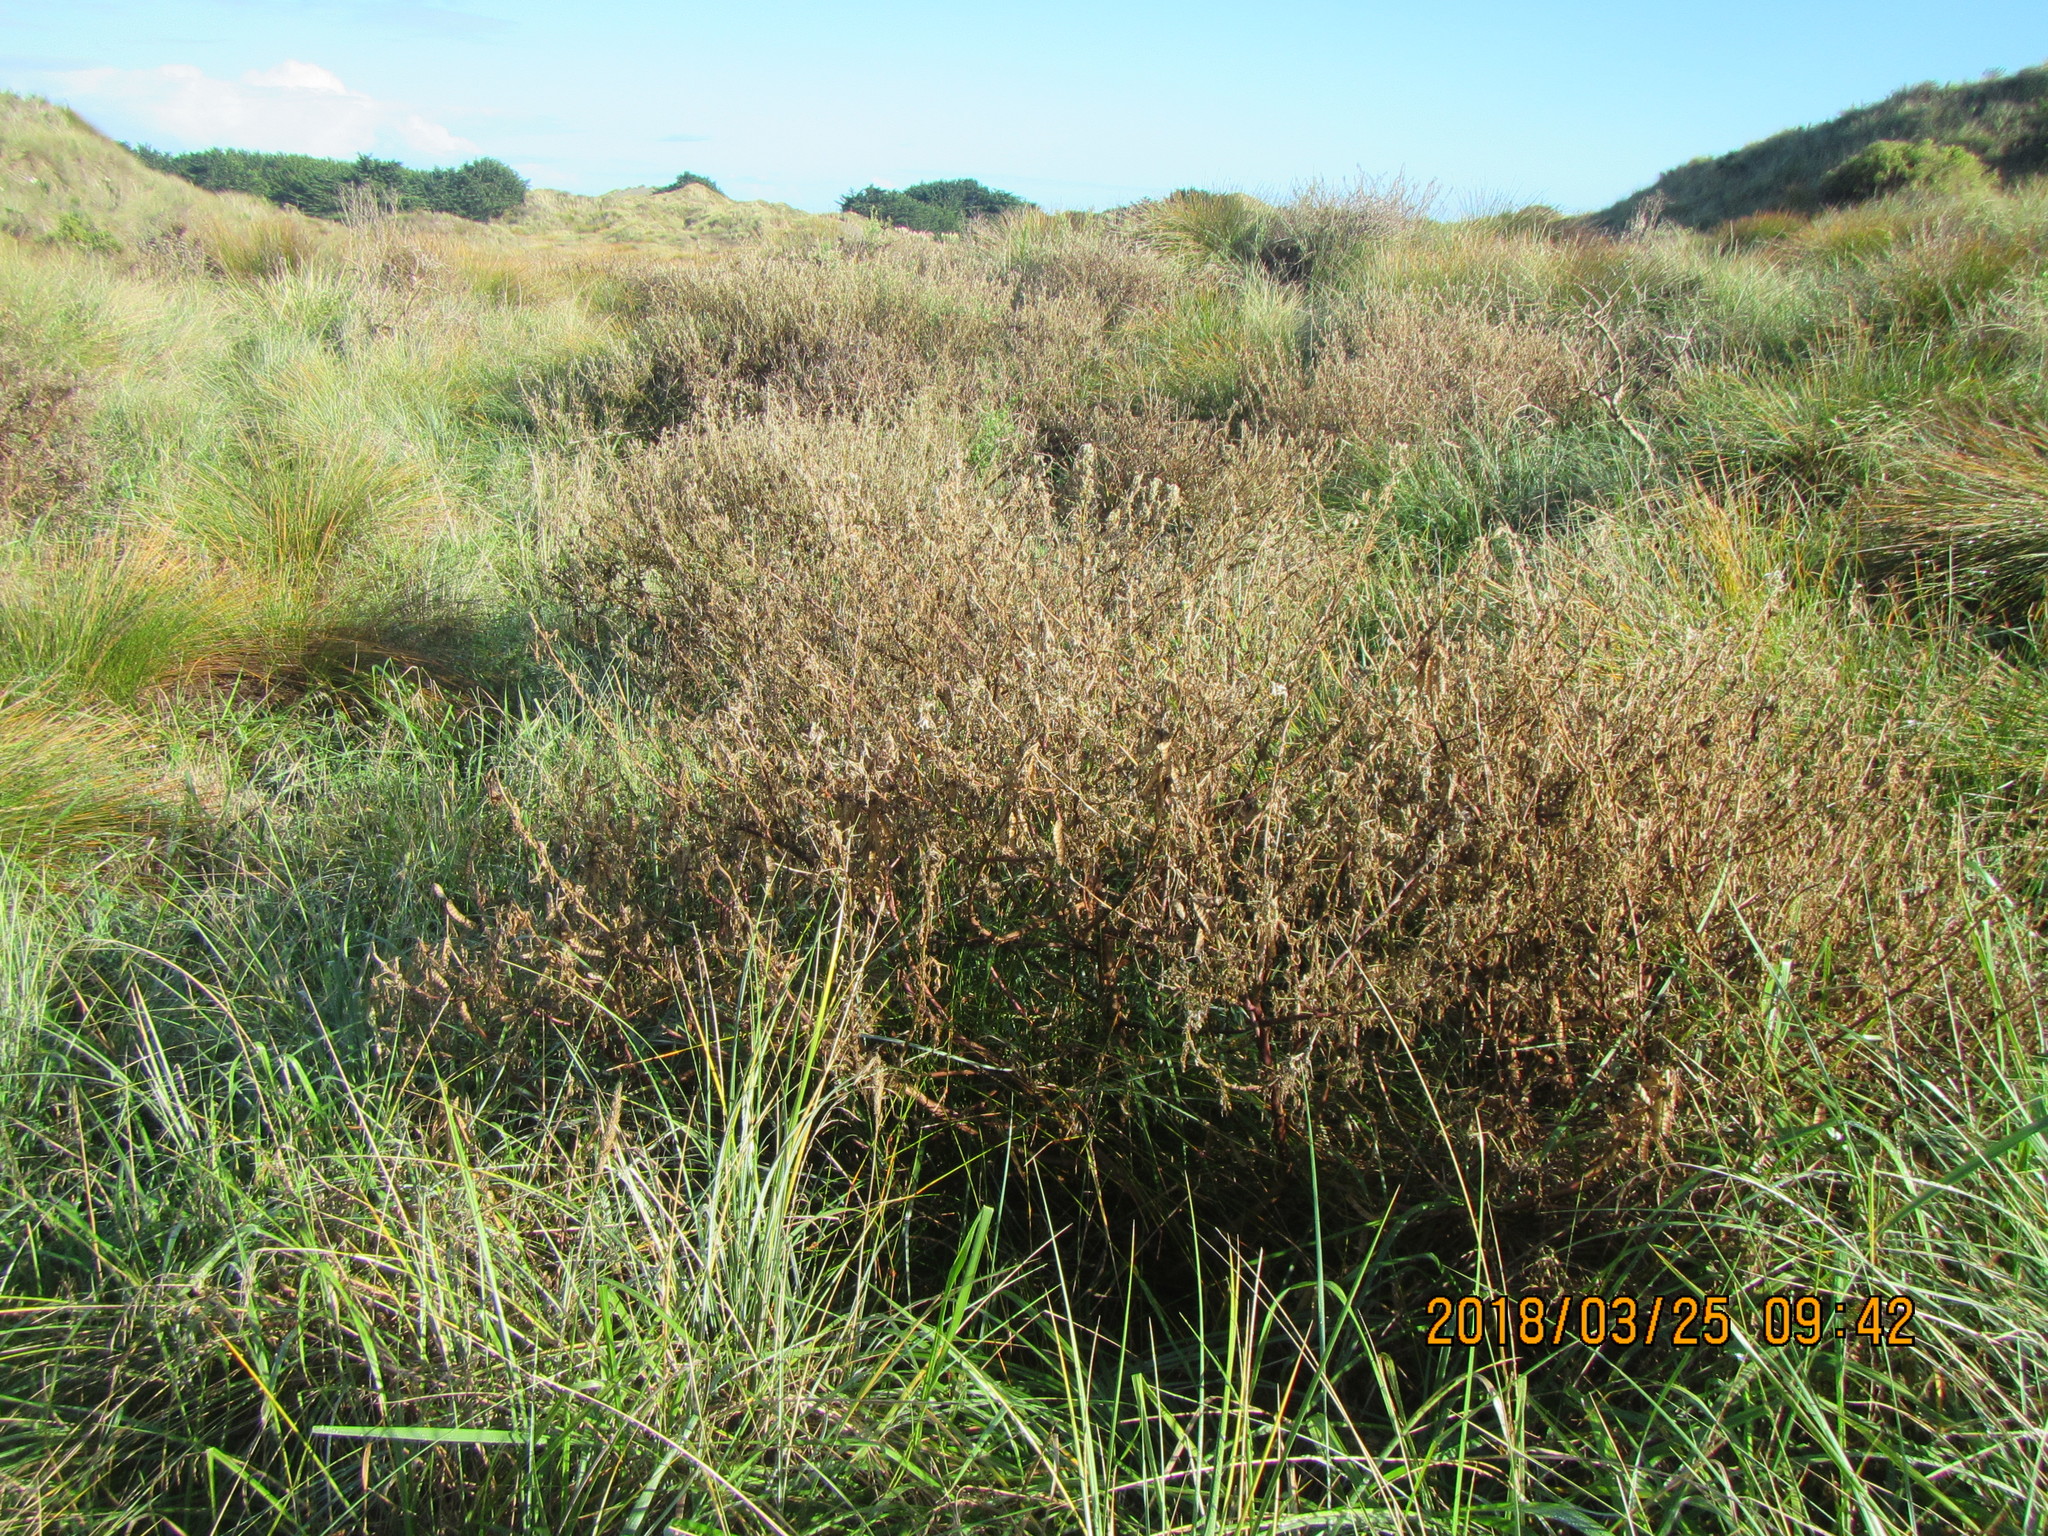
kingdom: Plantae
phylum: Tracheophyta
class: Magnoliopsida
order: Fabales
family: Fabaceae
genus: Lupinus
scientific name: Lupinus arboreus
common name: Yellow bush lupine
